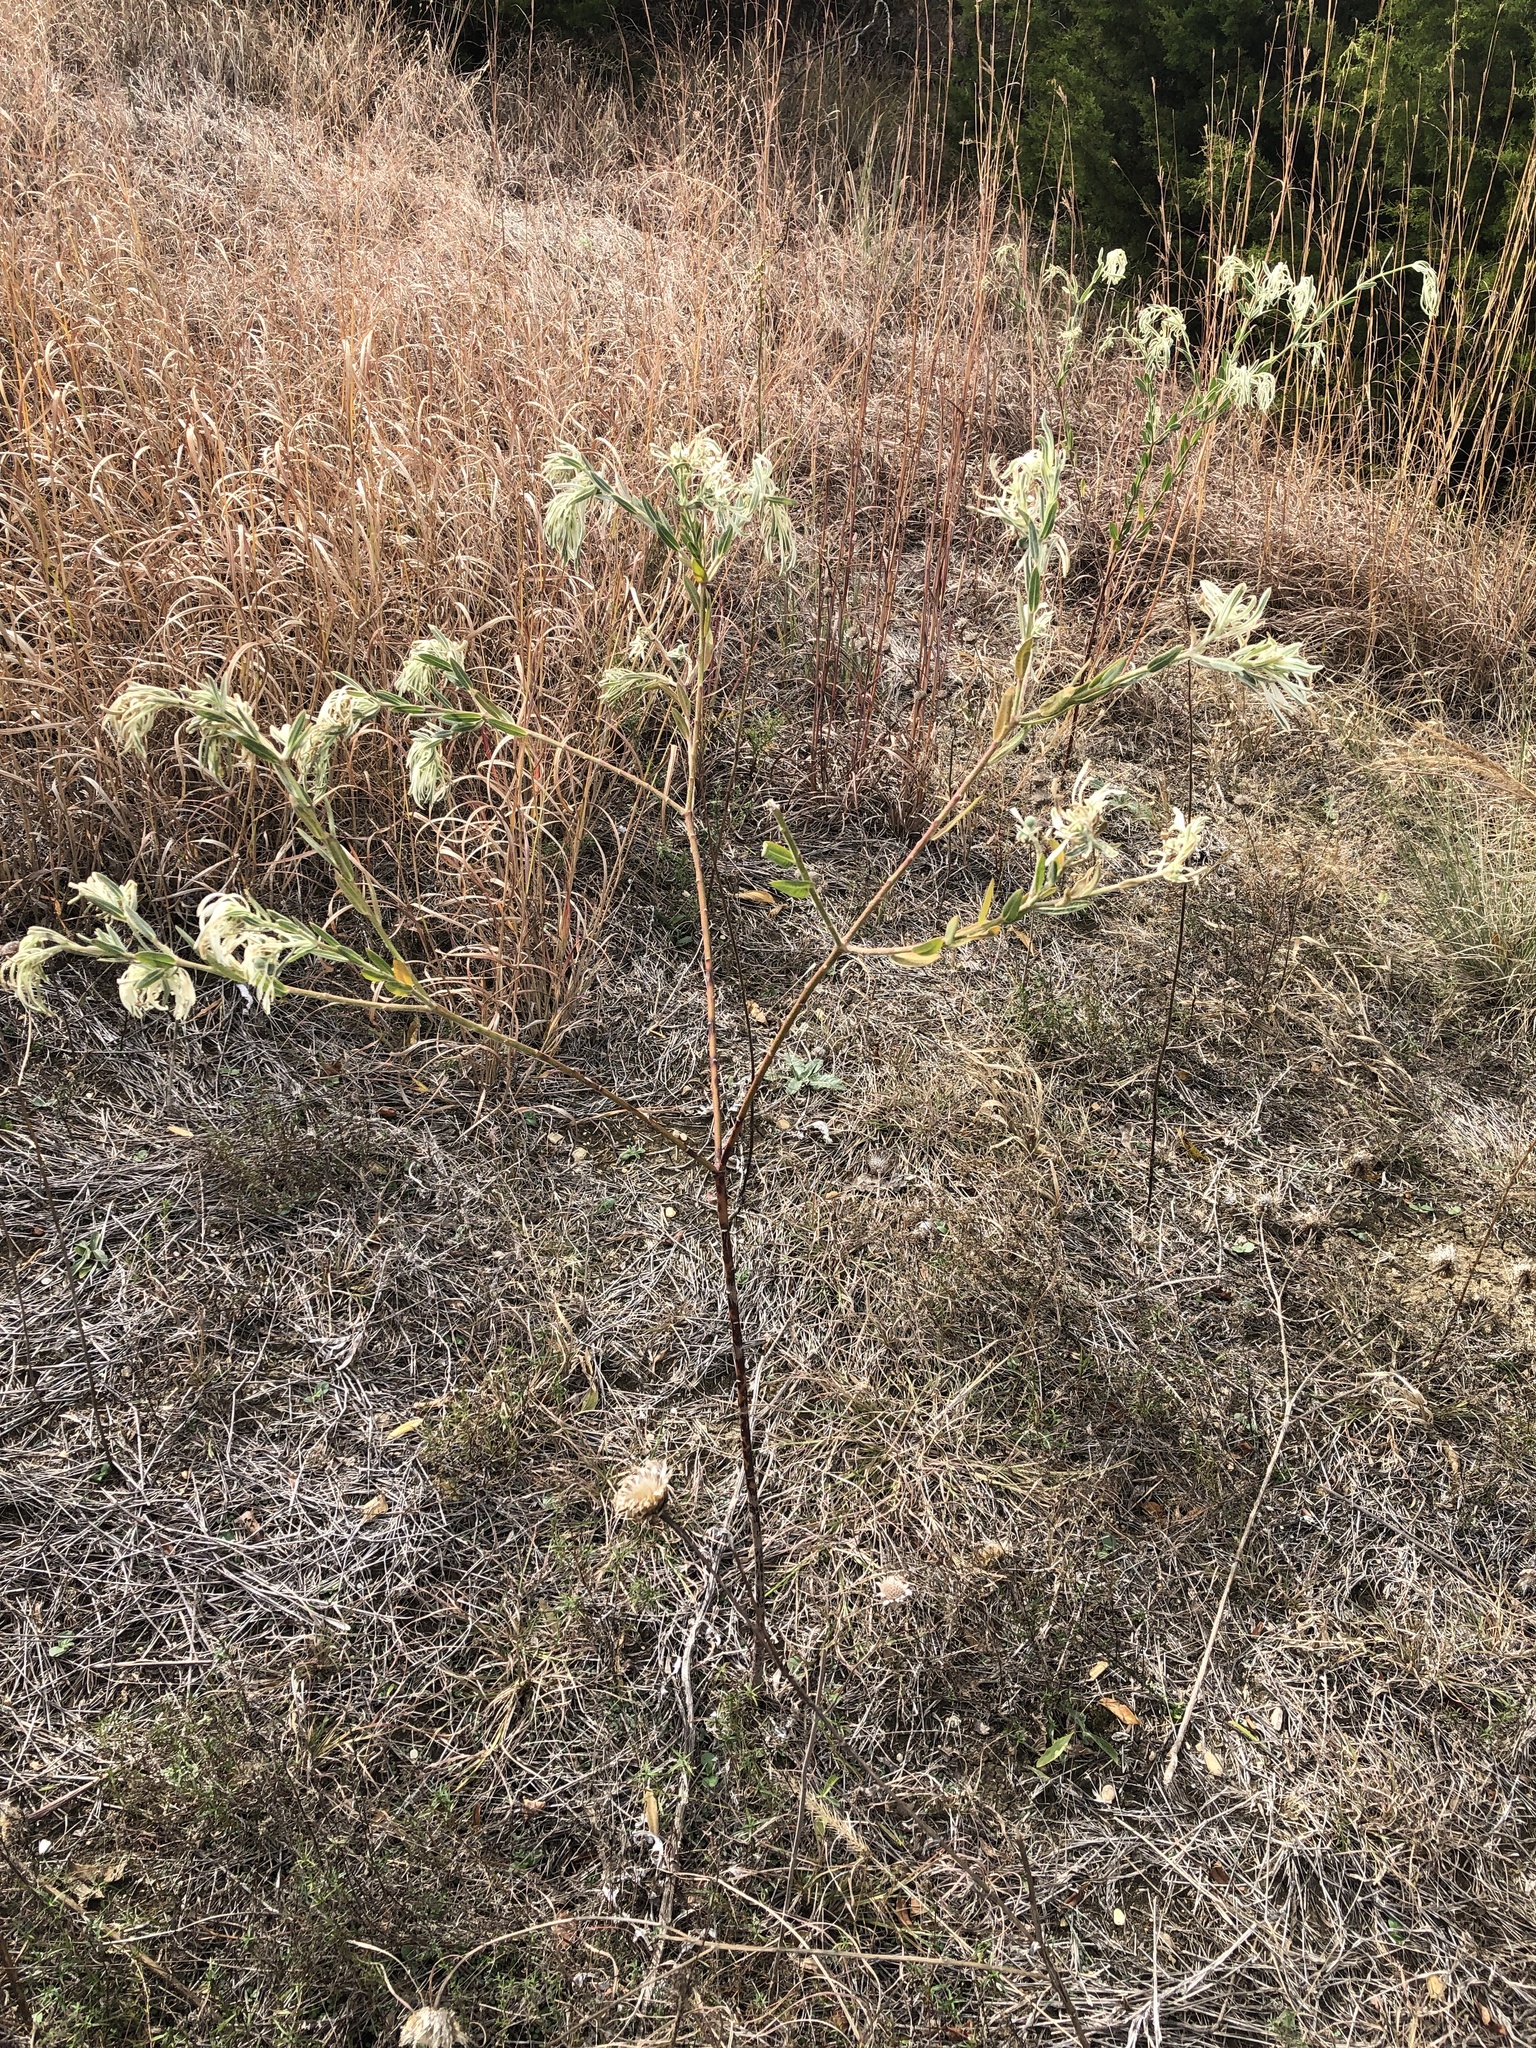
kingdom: Plantae
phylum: Tracheophyta
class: Magnoliopsida
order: Malpighiales
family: Euphorbiaceae
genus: Euphorbia
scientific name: Euphorbia bicolor
